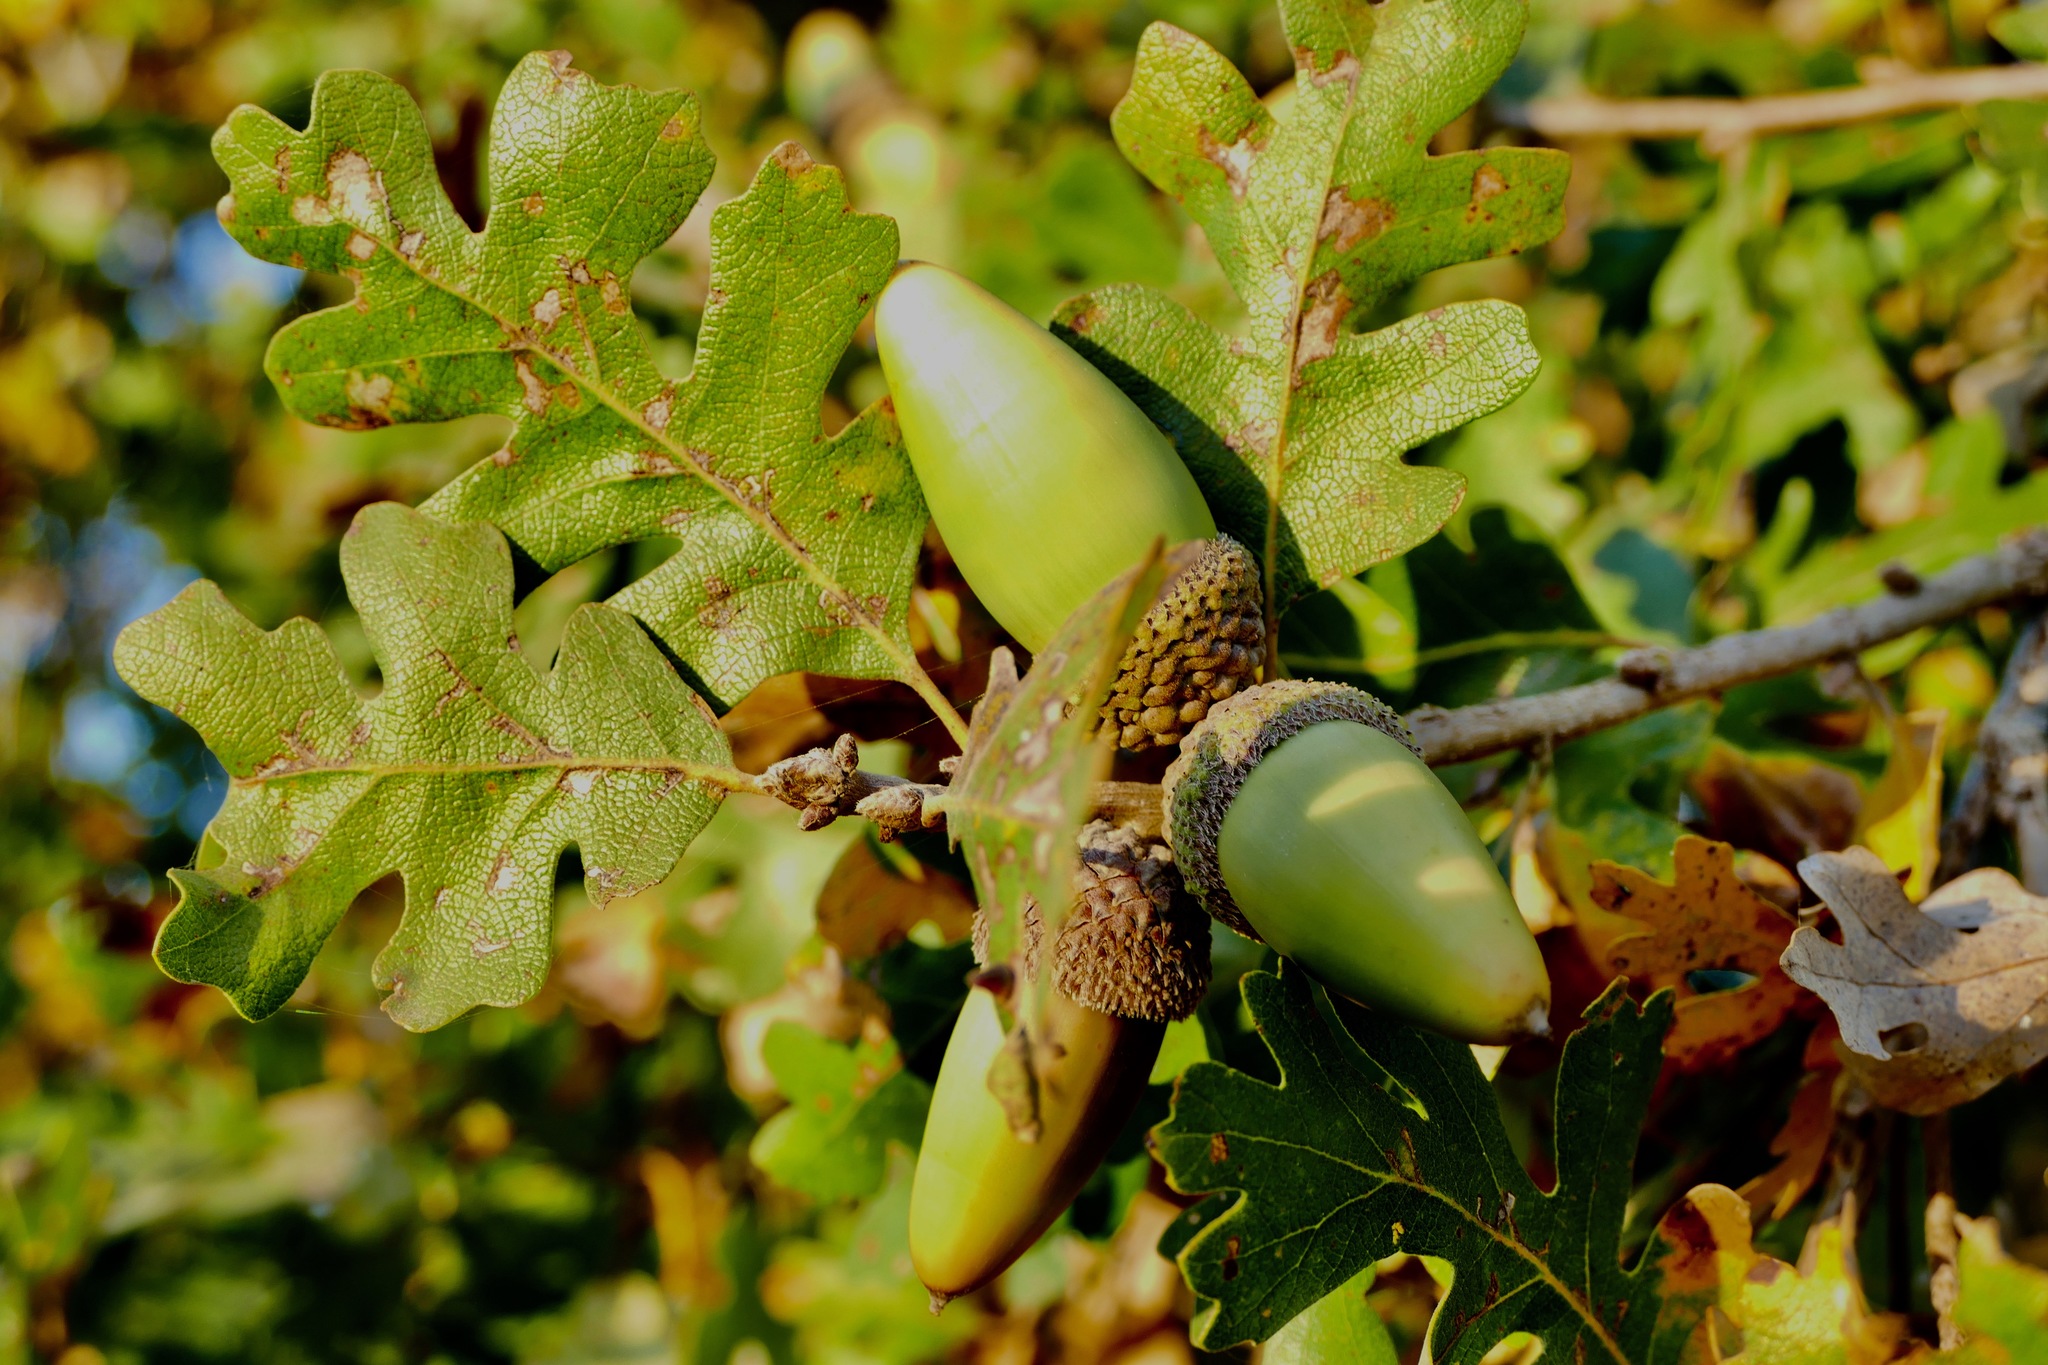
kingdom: Plantae
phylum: Tracheophyta
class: Magnoliopsida
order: Fagales
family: Fagaceae
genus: Quercus
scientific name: Quercus lobata
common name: Valley oak
